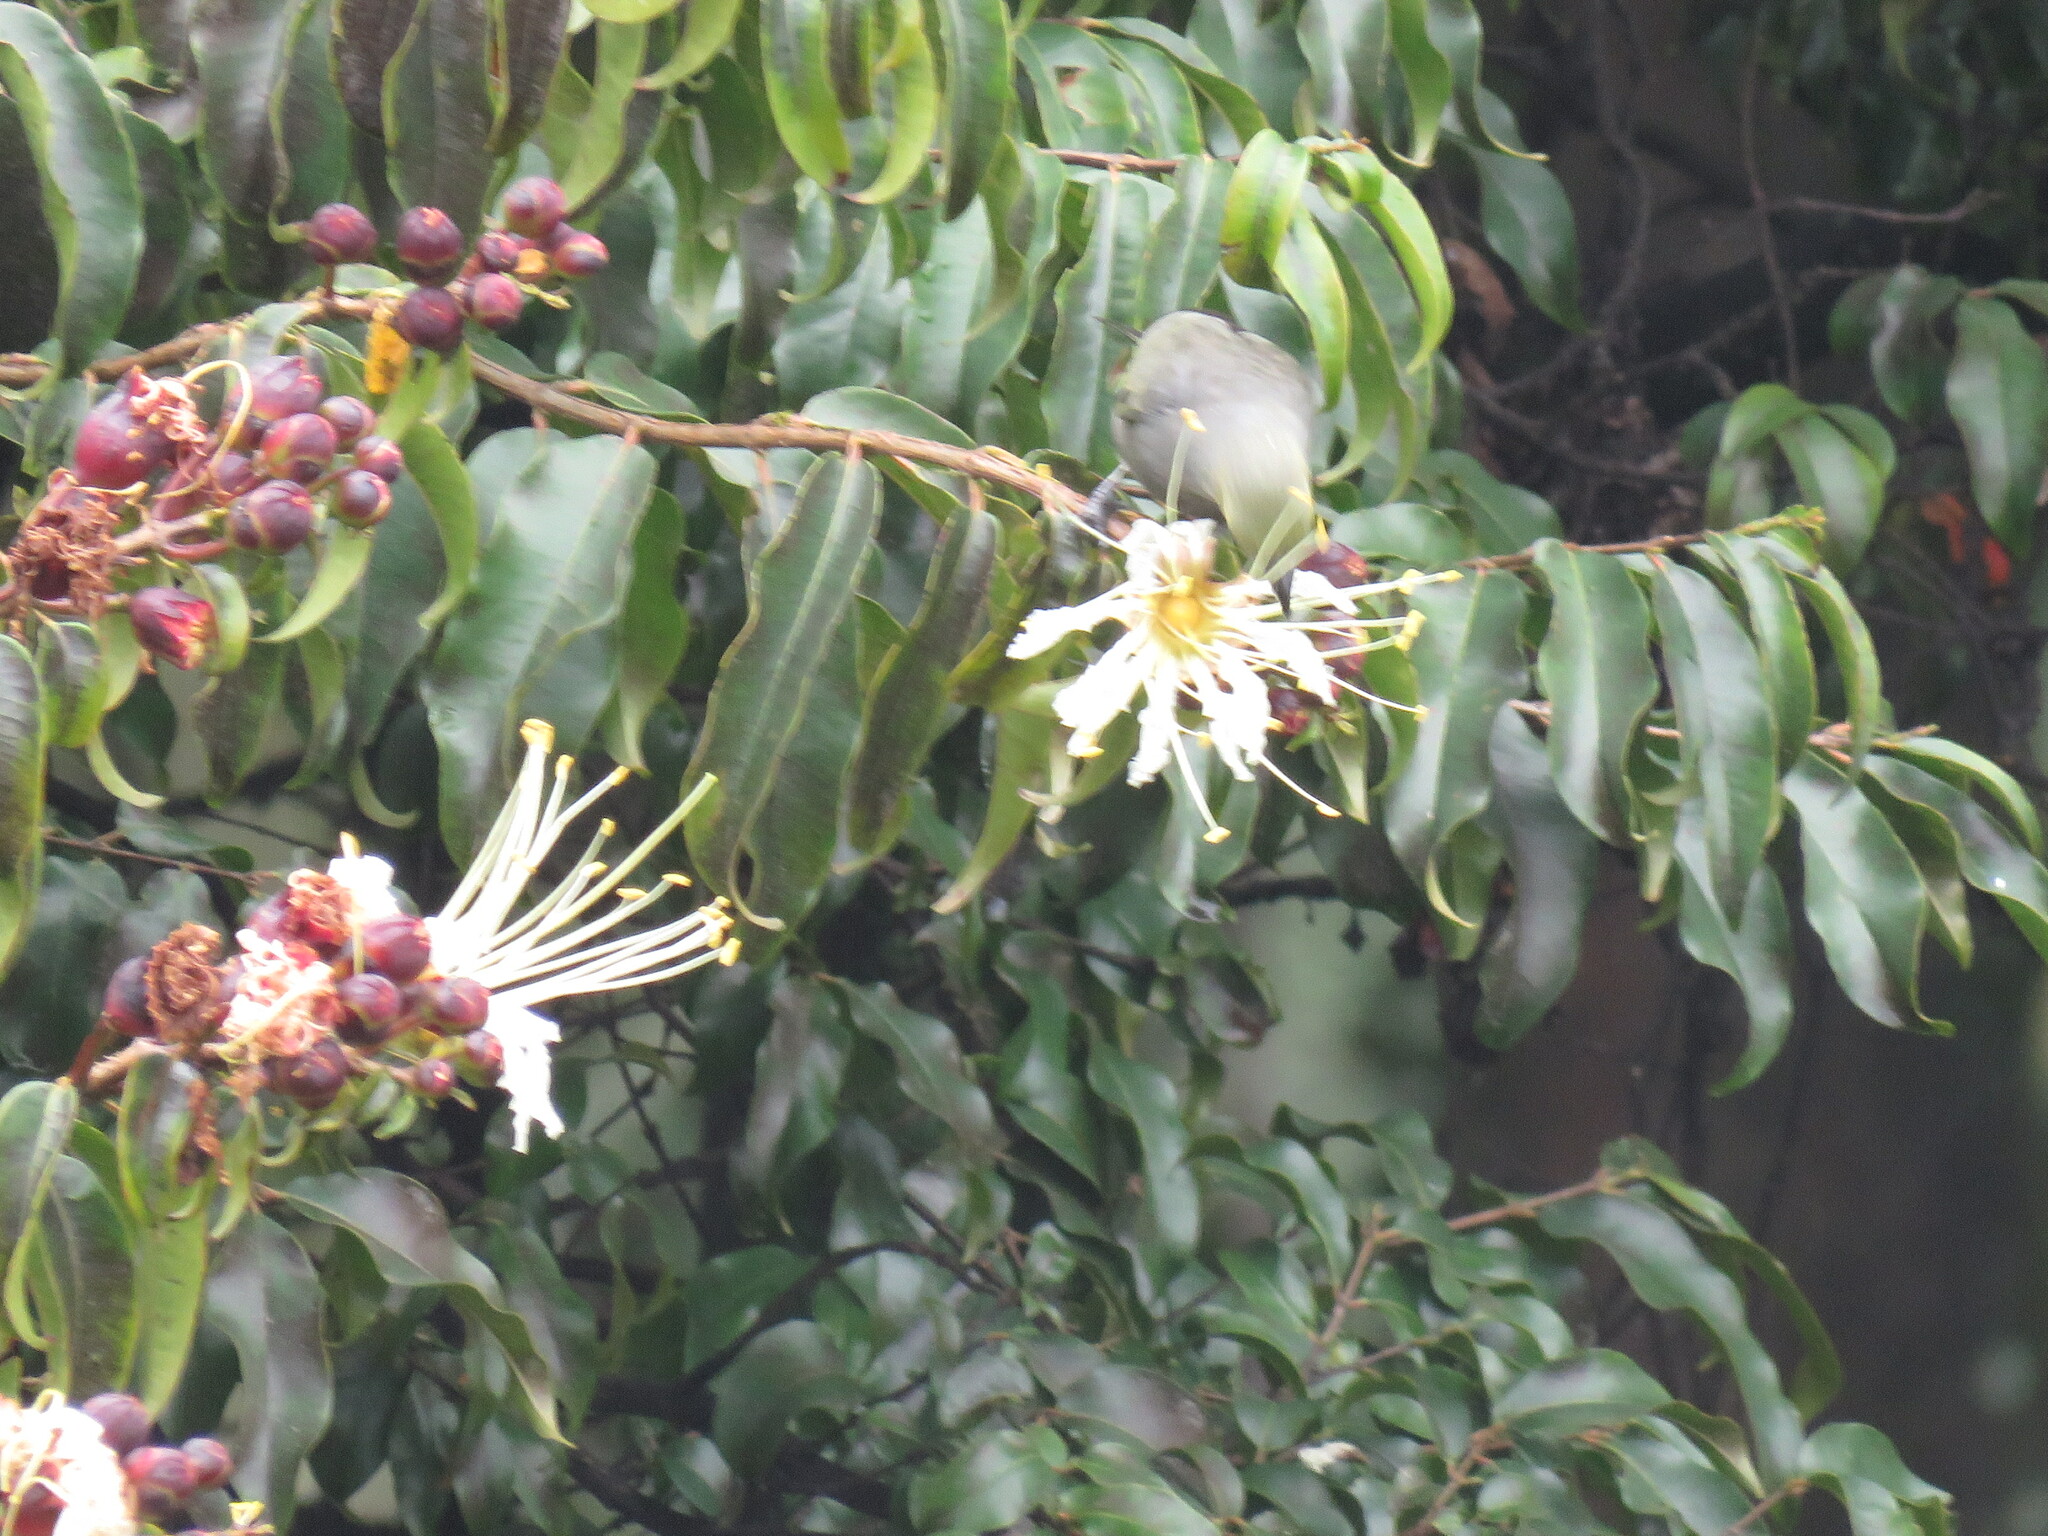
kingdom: Animalia
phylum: Chordata
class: Aves
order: Passeriformes
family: Thraupidae
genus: Thraupis
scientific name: Thraupis palmarum
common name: Palm tanager
